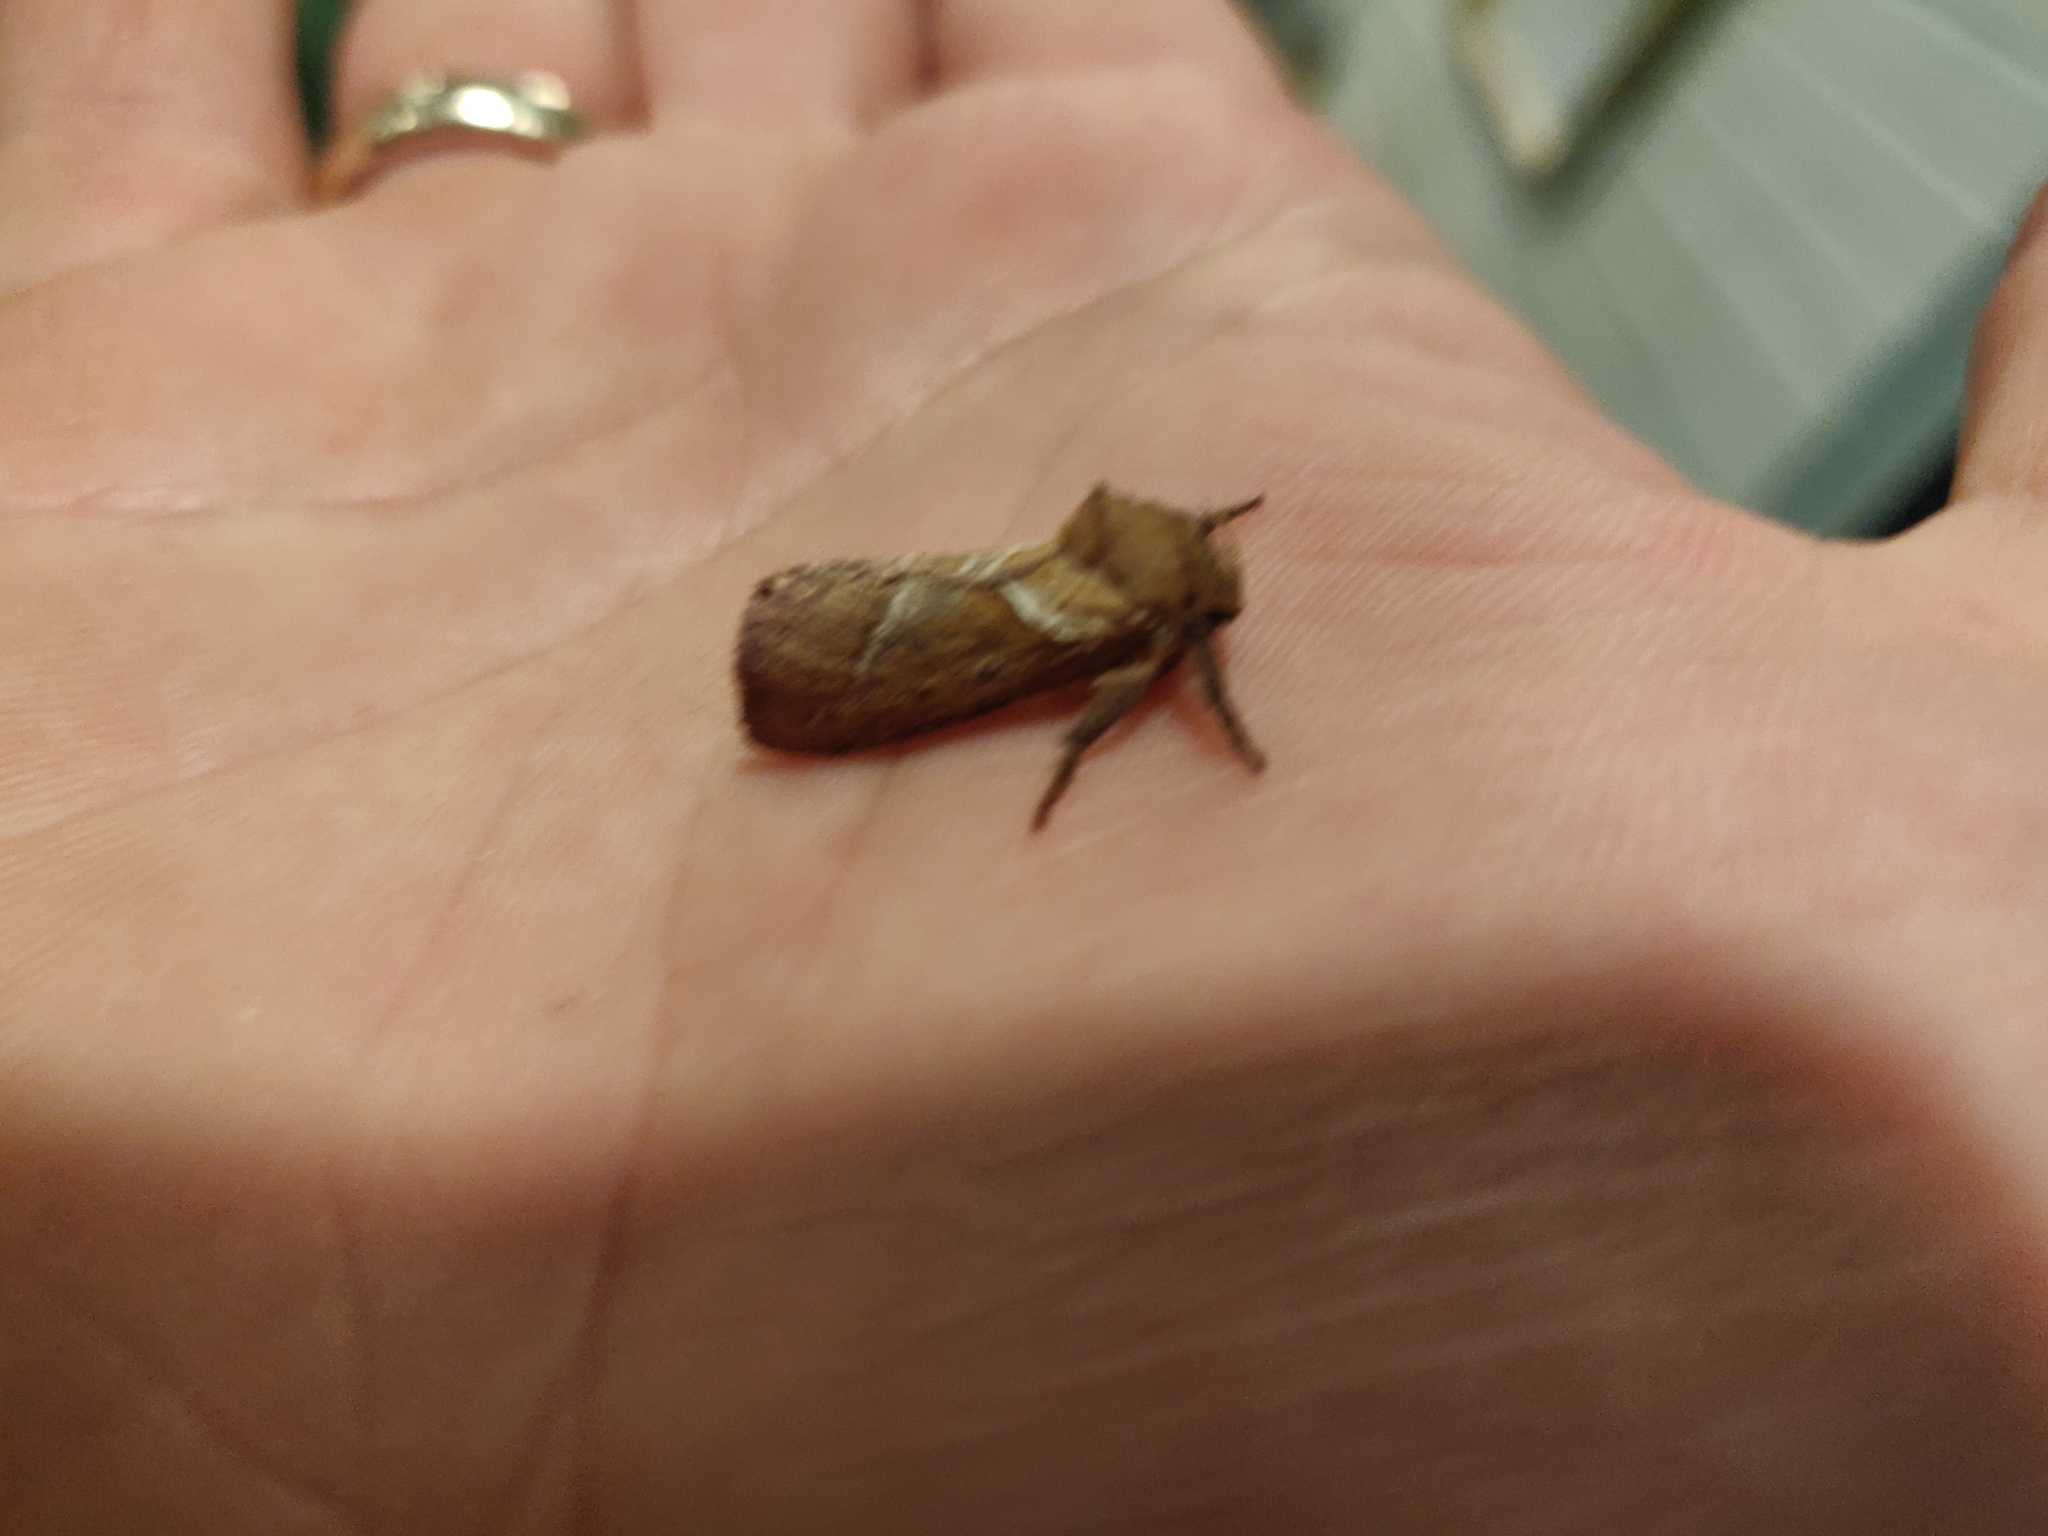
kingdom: Animalia
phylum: Arthropoda
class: Insecta
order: Lepidoptera
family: Hepialidae
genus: Triodia
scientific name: Triodia sylvina
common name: Orange swift
